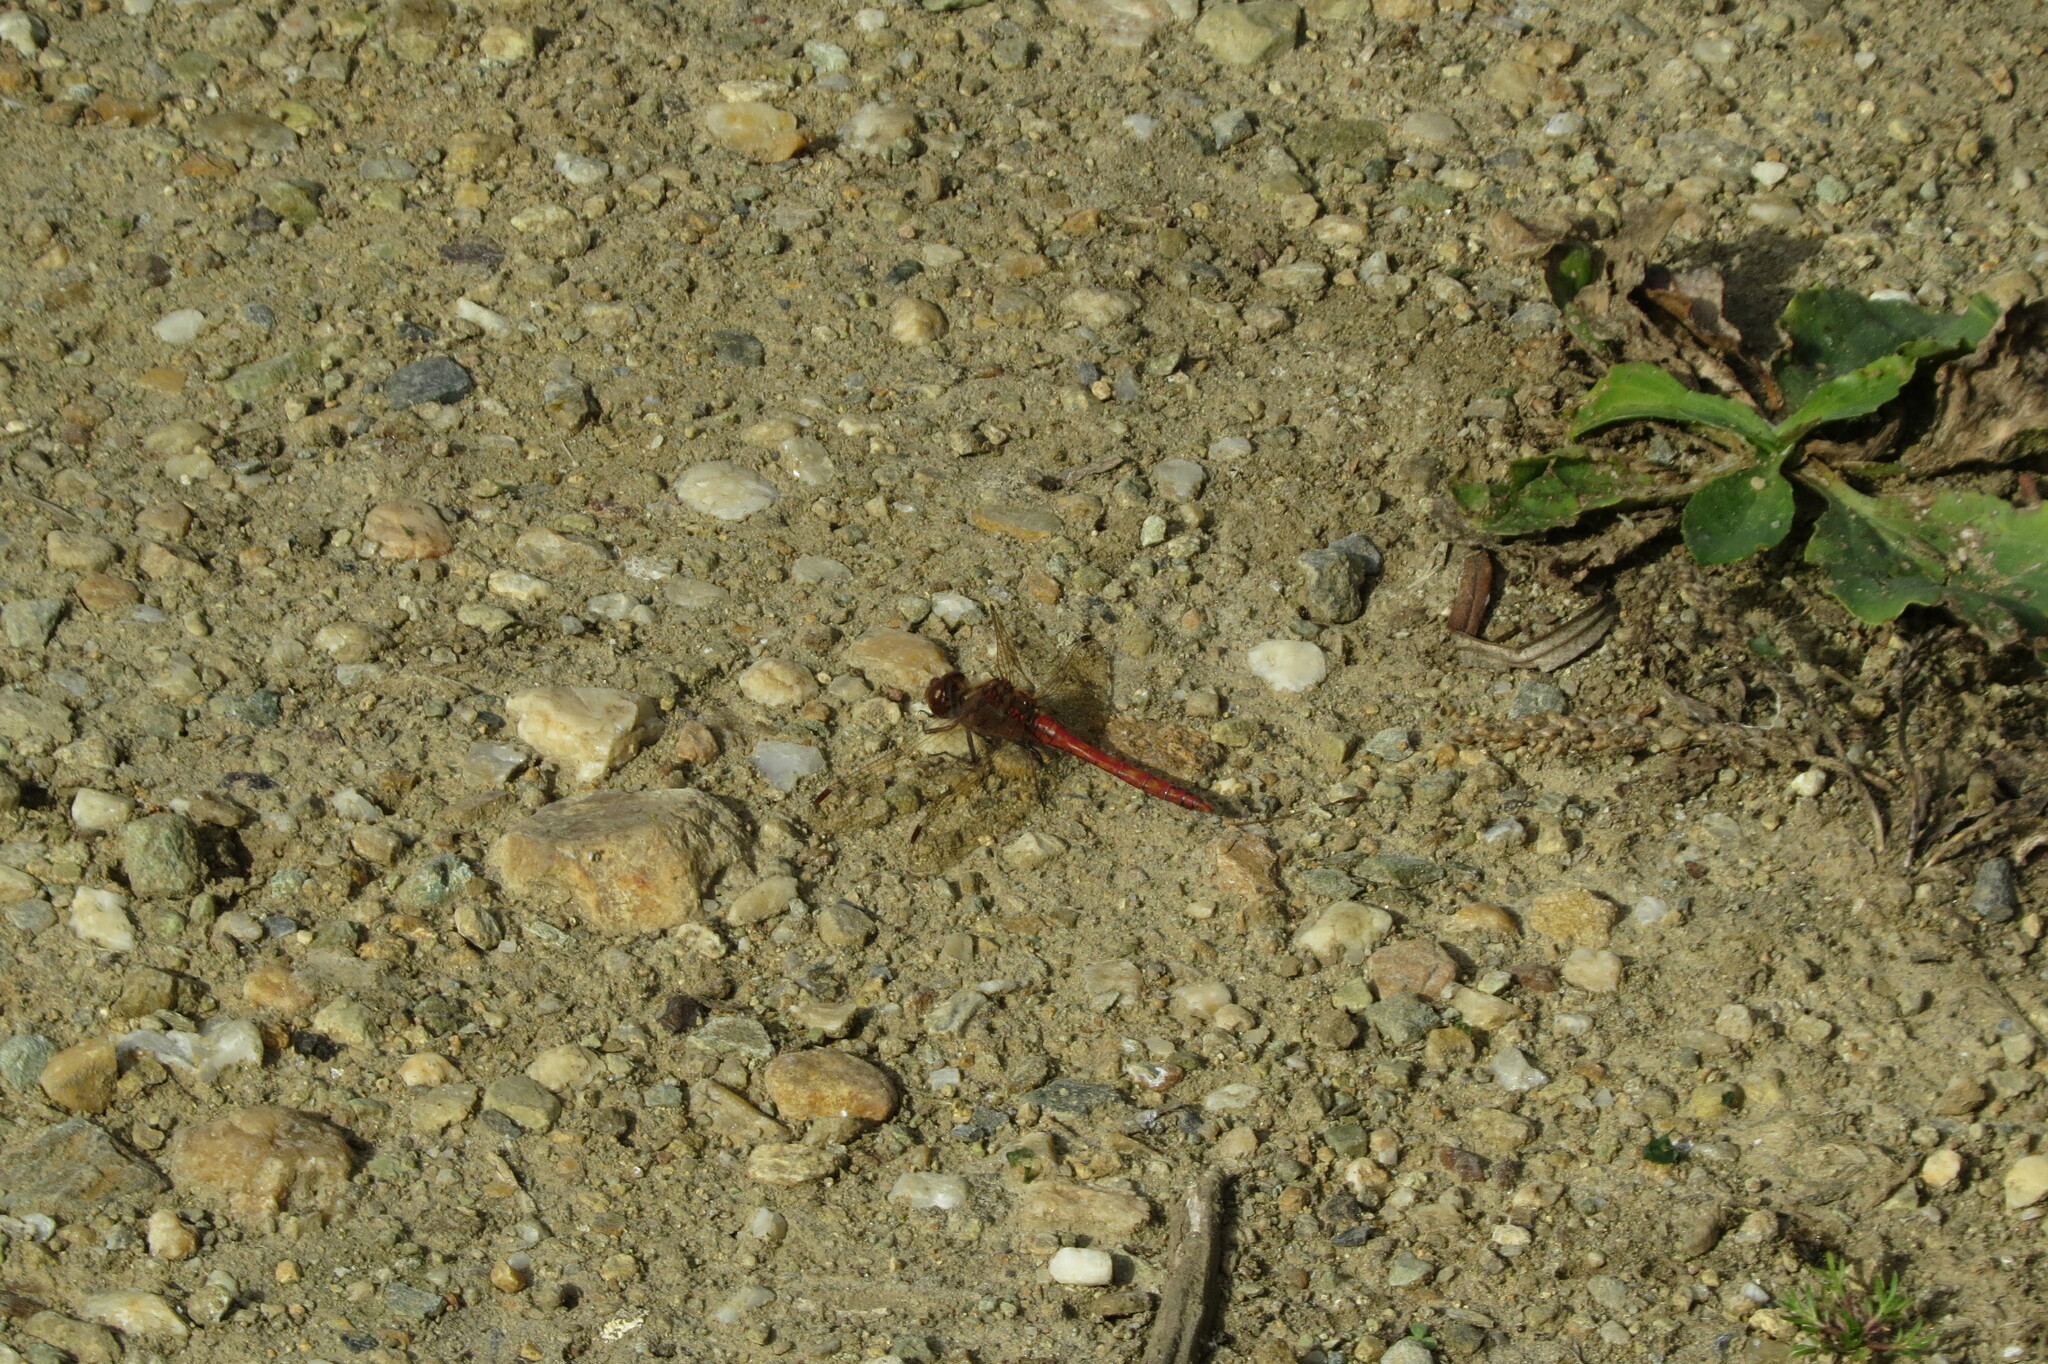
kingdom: Animalia
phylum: Arthropoda
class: Insecta
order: Odonata
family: Libellulidae
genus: Sympetrum
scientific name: Sympetrum vulgatum
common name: Vagrant darter
